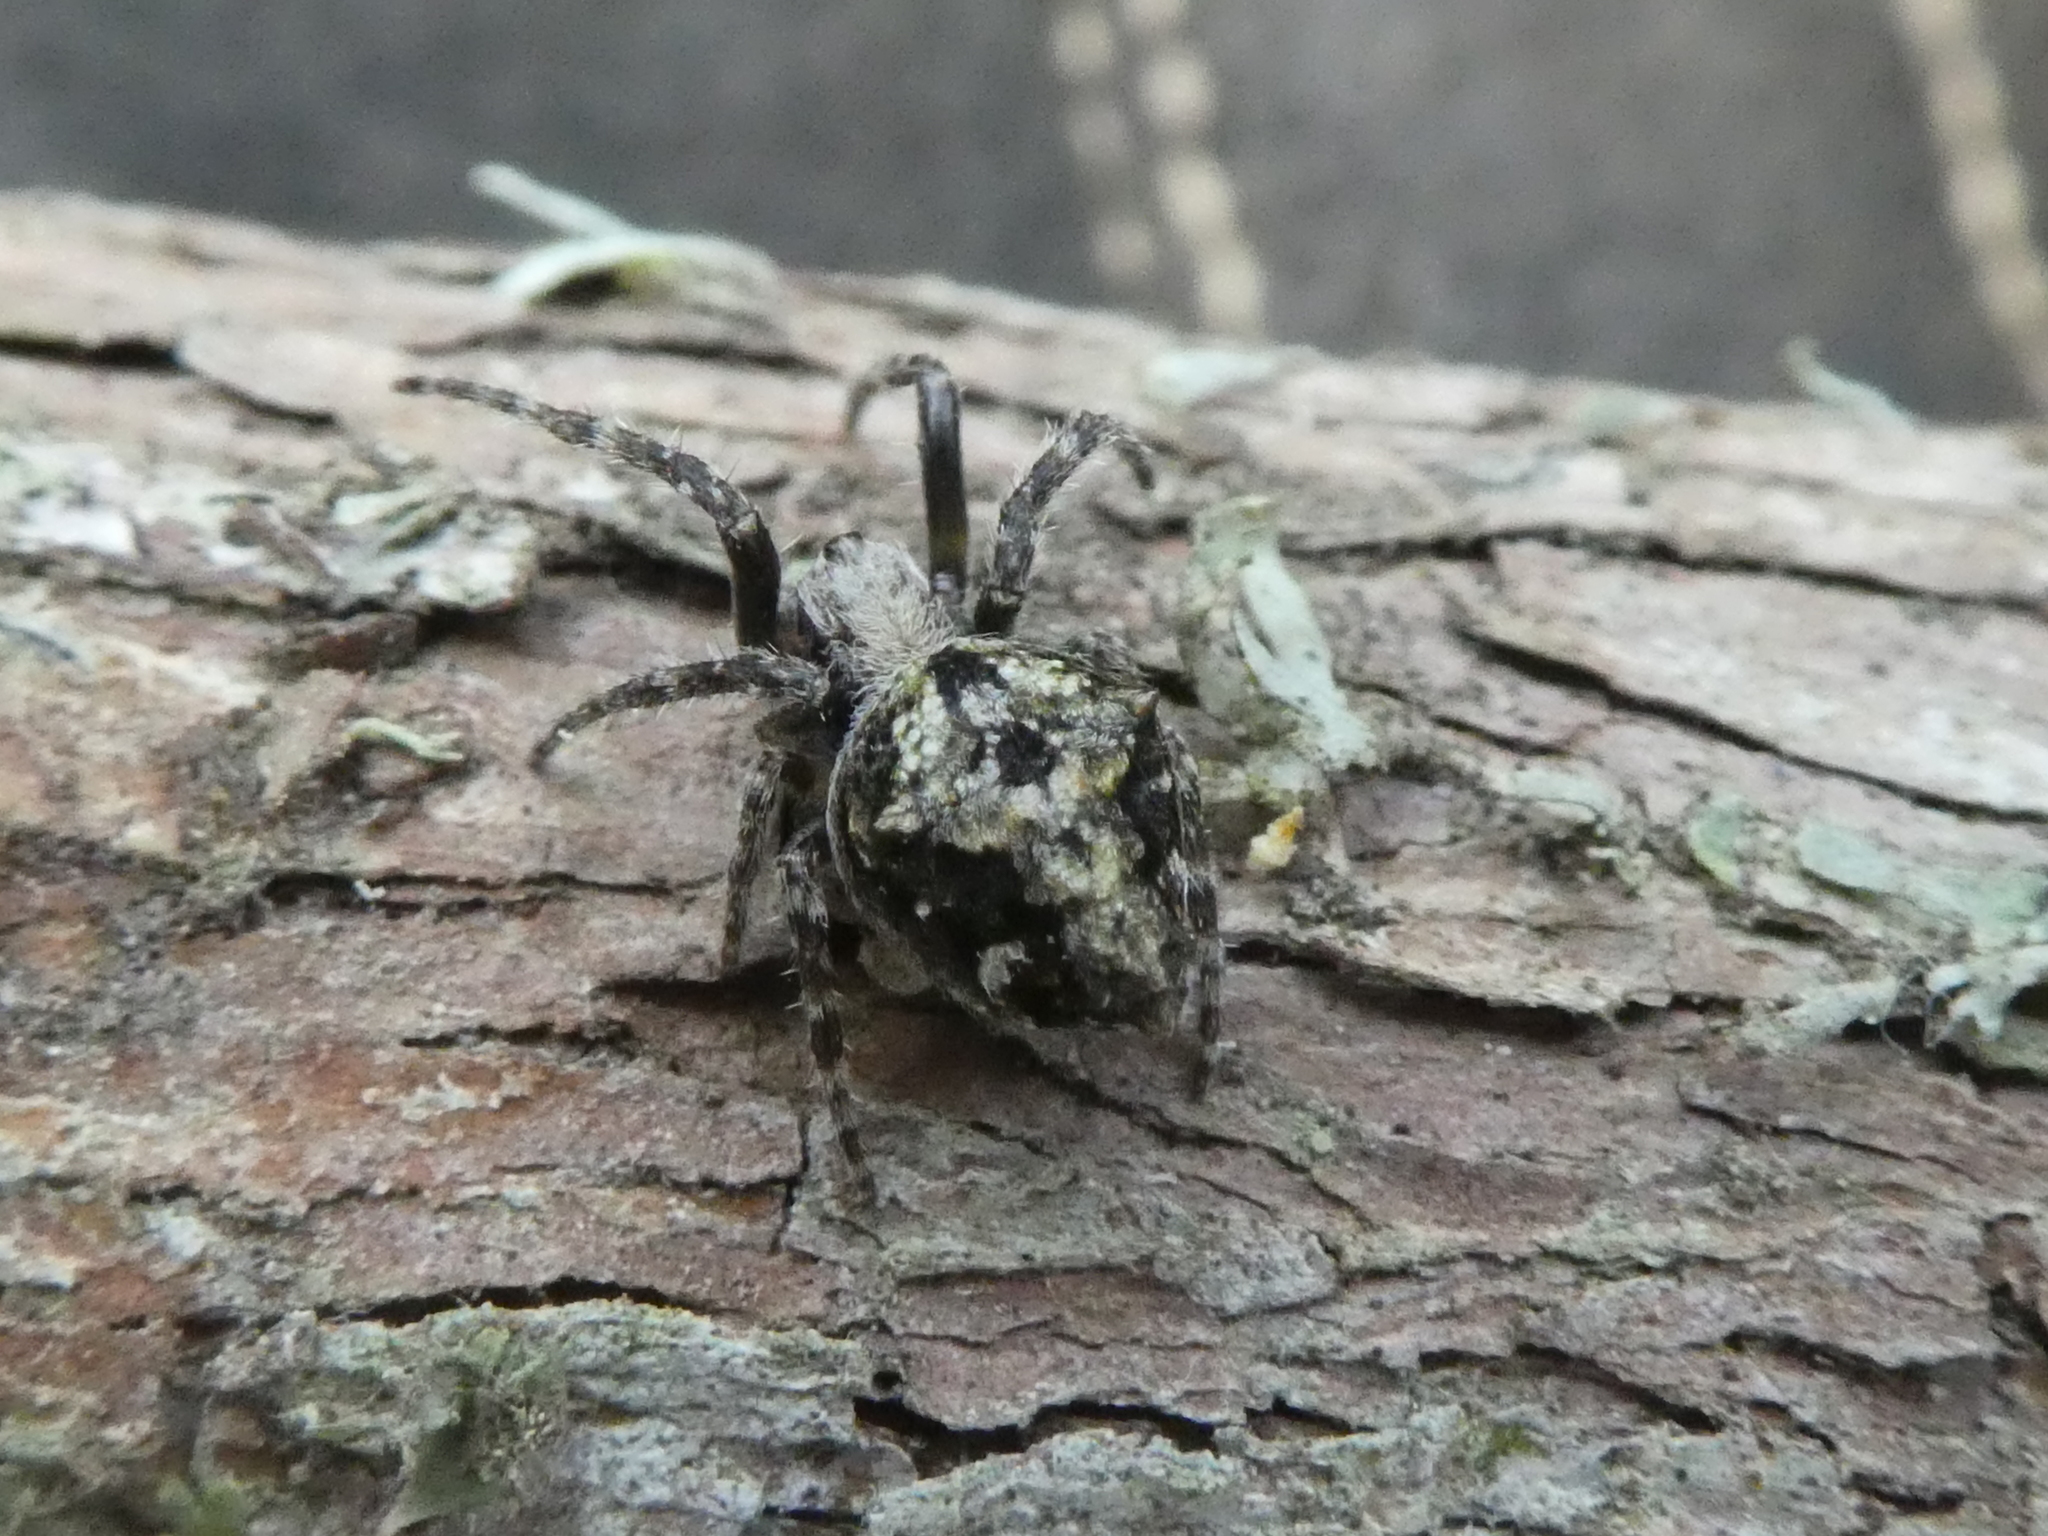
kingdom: Animalia
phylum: Arthropoda
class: Arachnida
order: Araneae
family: Araneidae
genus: Eriophora
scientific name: Eriophora pustulosa
